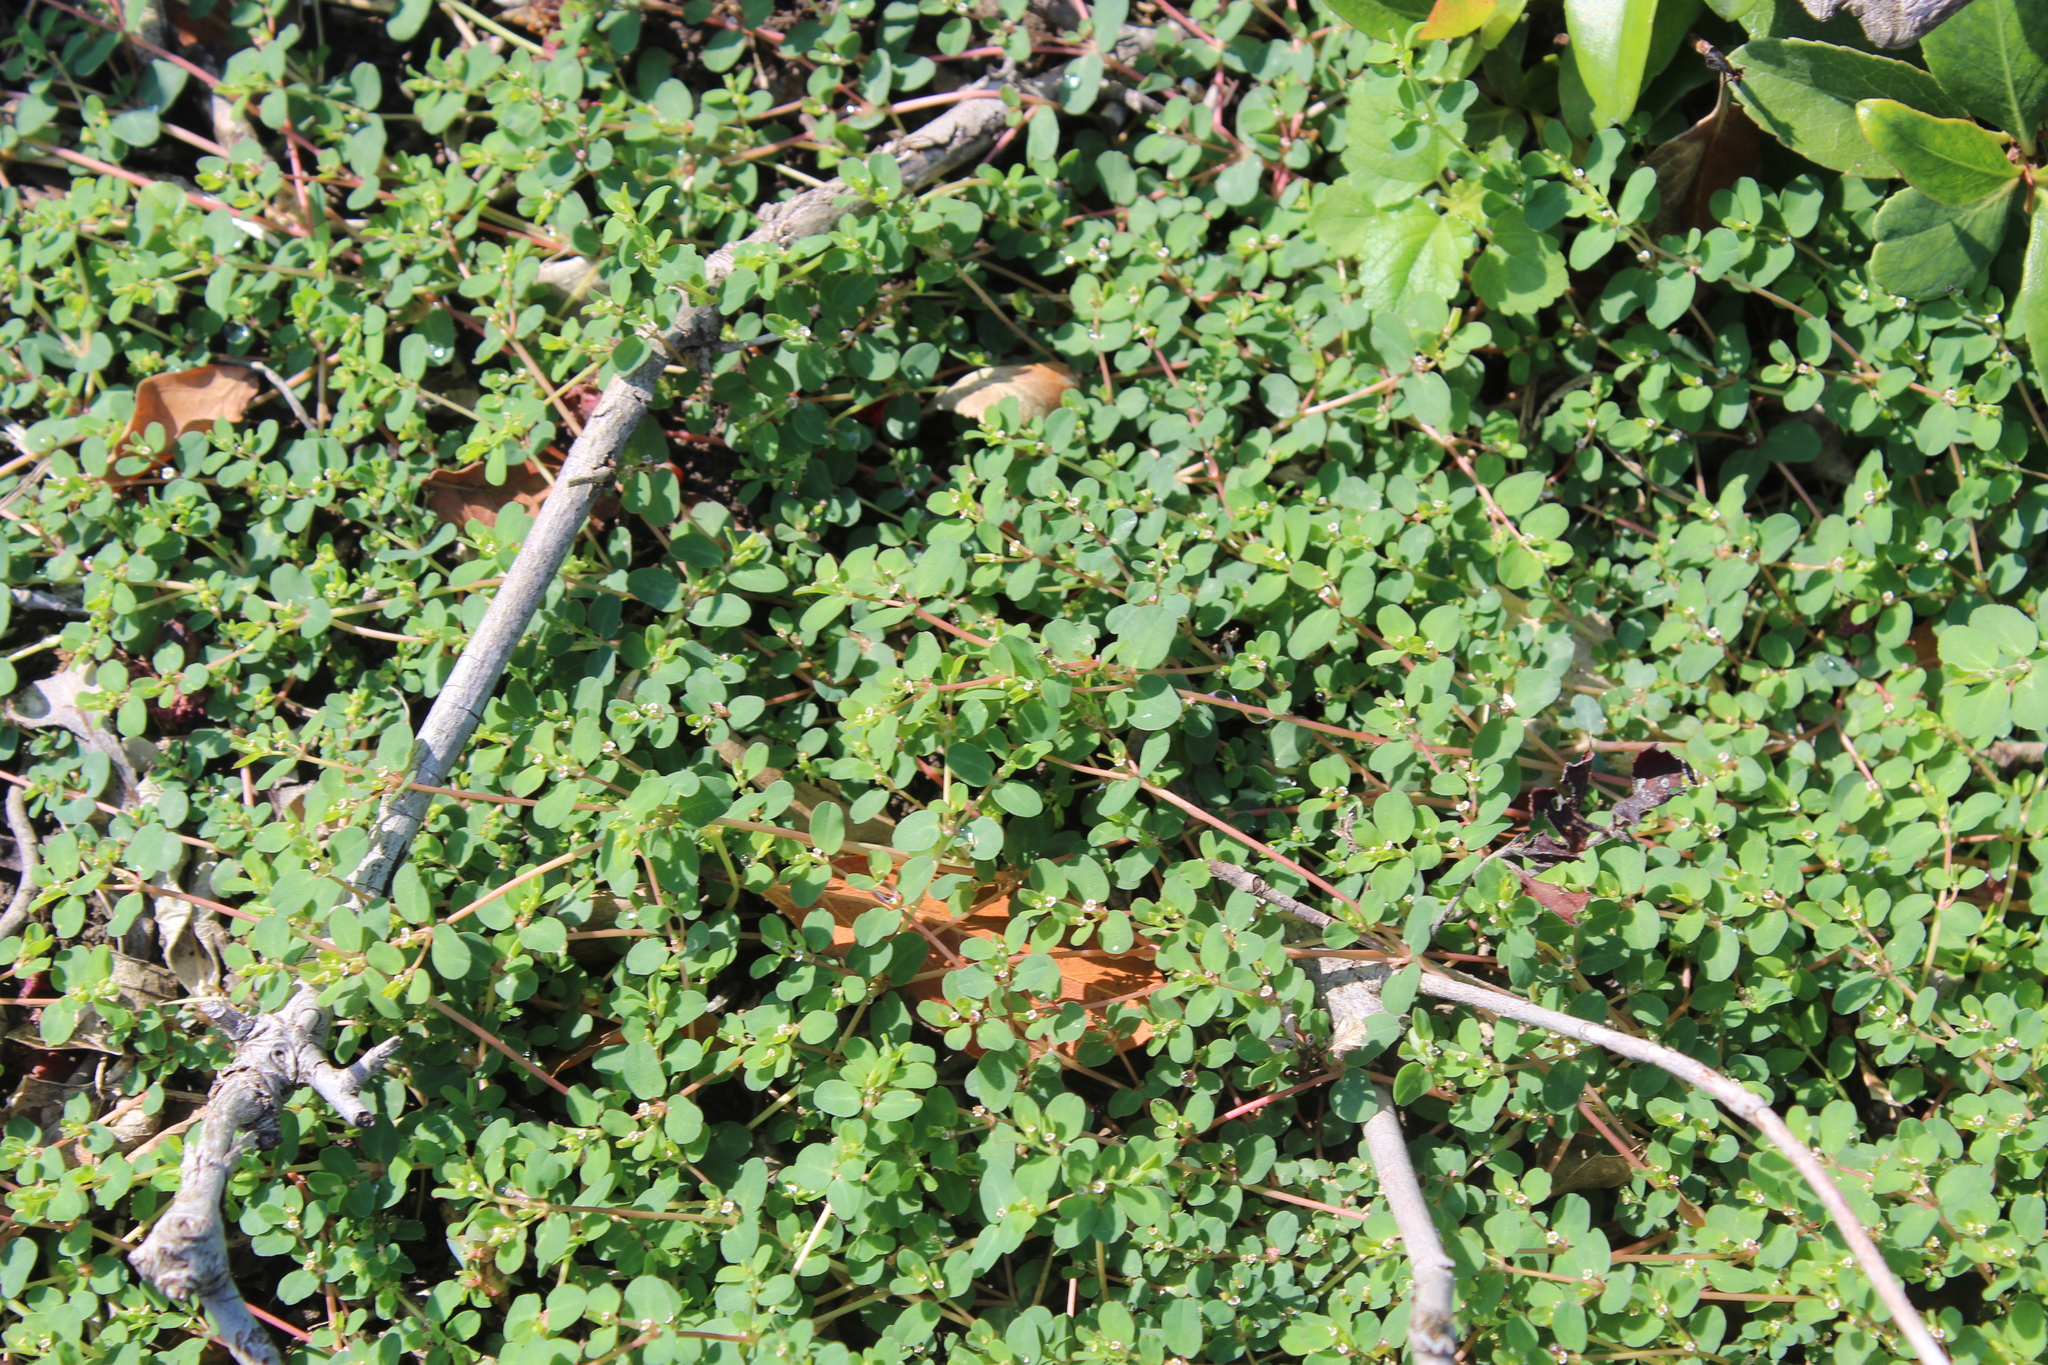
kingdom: Plantae
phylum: Tracheophyta
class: Magnoliopsida
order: Malpighiales
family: Euphorbiaceae
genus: Euphorbia
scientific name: Euphorbia serpens
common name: Matted sandmat
